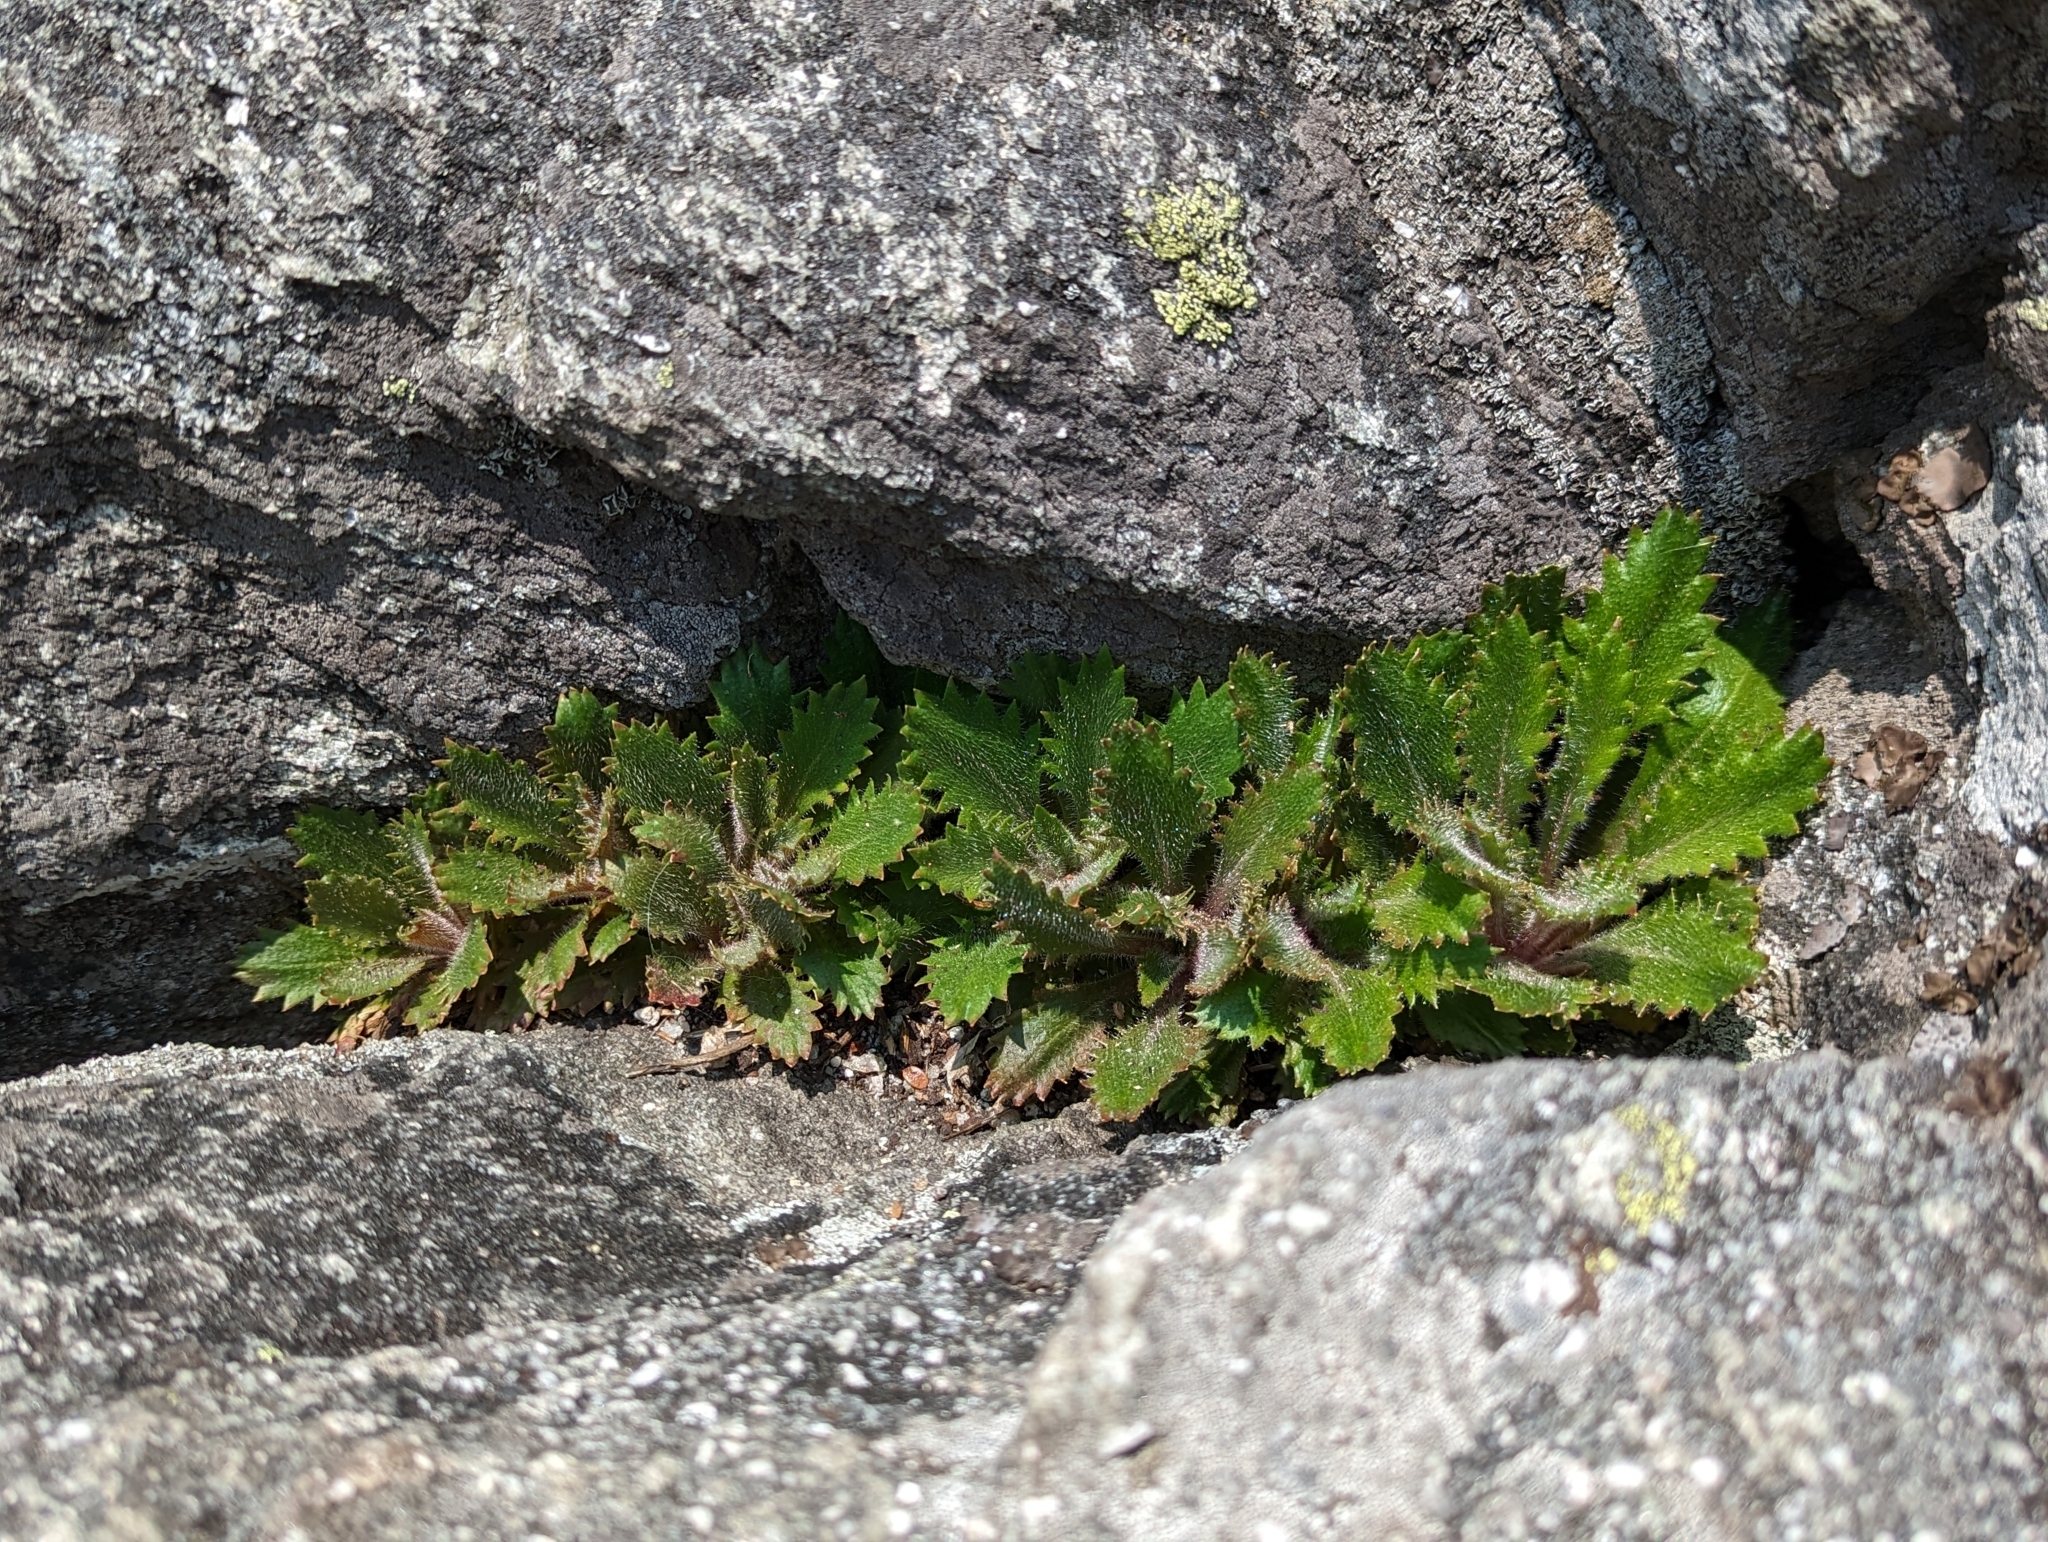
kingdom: Plantae
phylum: Tracheophyta
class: Magnoliopsida
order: Saxifragales
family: Saxifragaceae
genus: Micranthes
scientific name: Micranthes petiolaris
